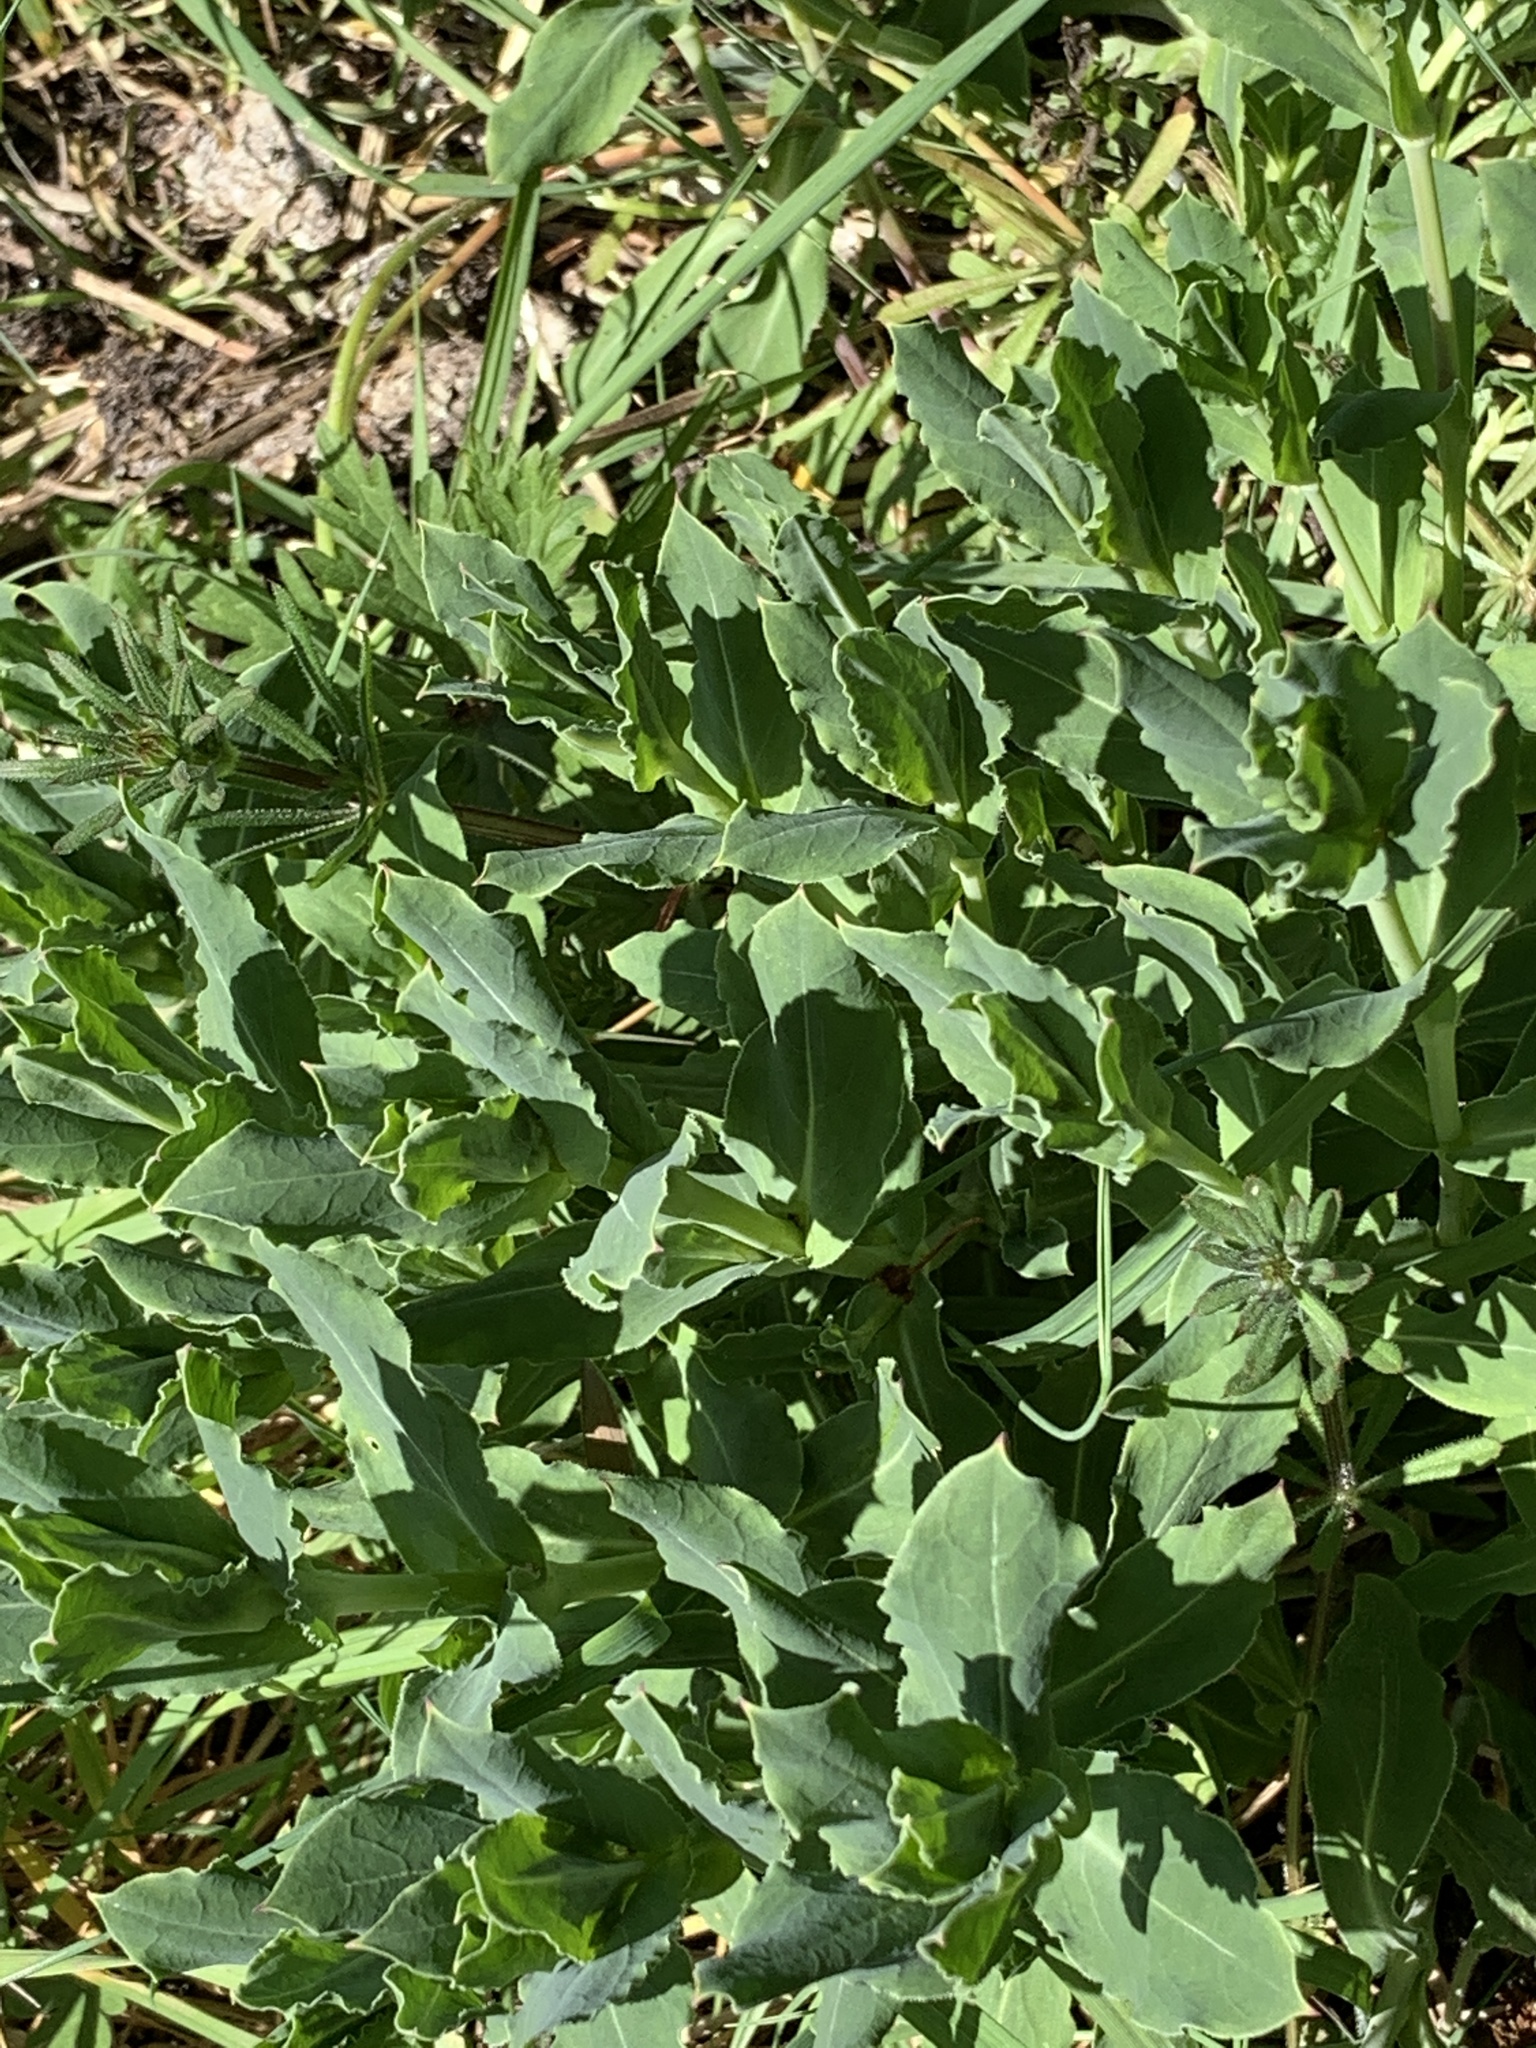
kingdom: Plantae
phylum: Tracheophyta
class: Magnoliopsida
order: Caryophyllales
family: Caryophyllaceae
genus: Silene
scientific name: Silene vulgaris
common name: Bladder campion
